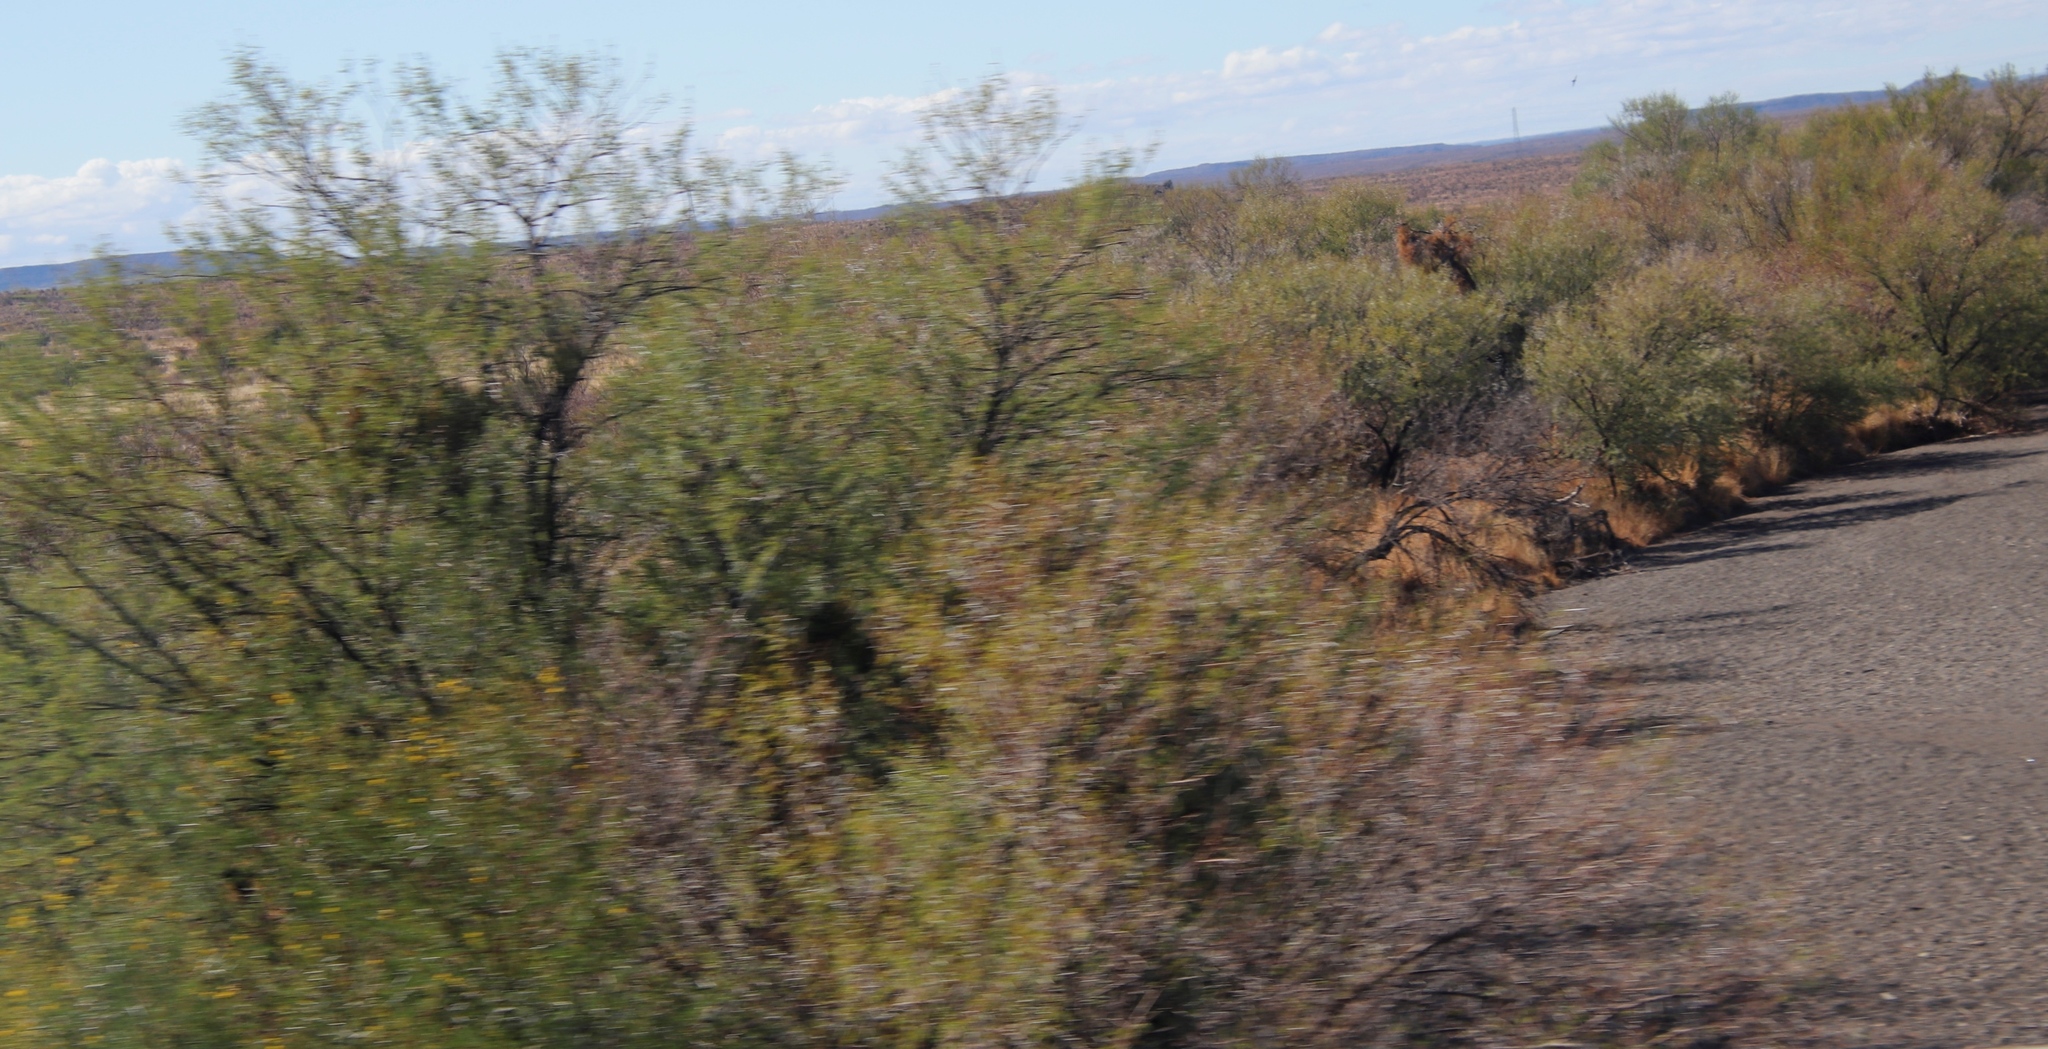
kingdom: Plantae
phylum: Tracheophyta
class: Magnoliopsida
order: Fabales
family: Fabaceae
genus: Vachellia
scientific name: Vachellia karroo
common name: Sweet thorn
